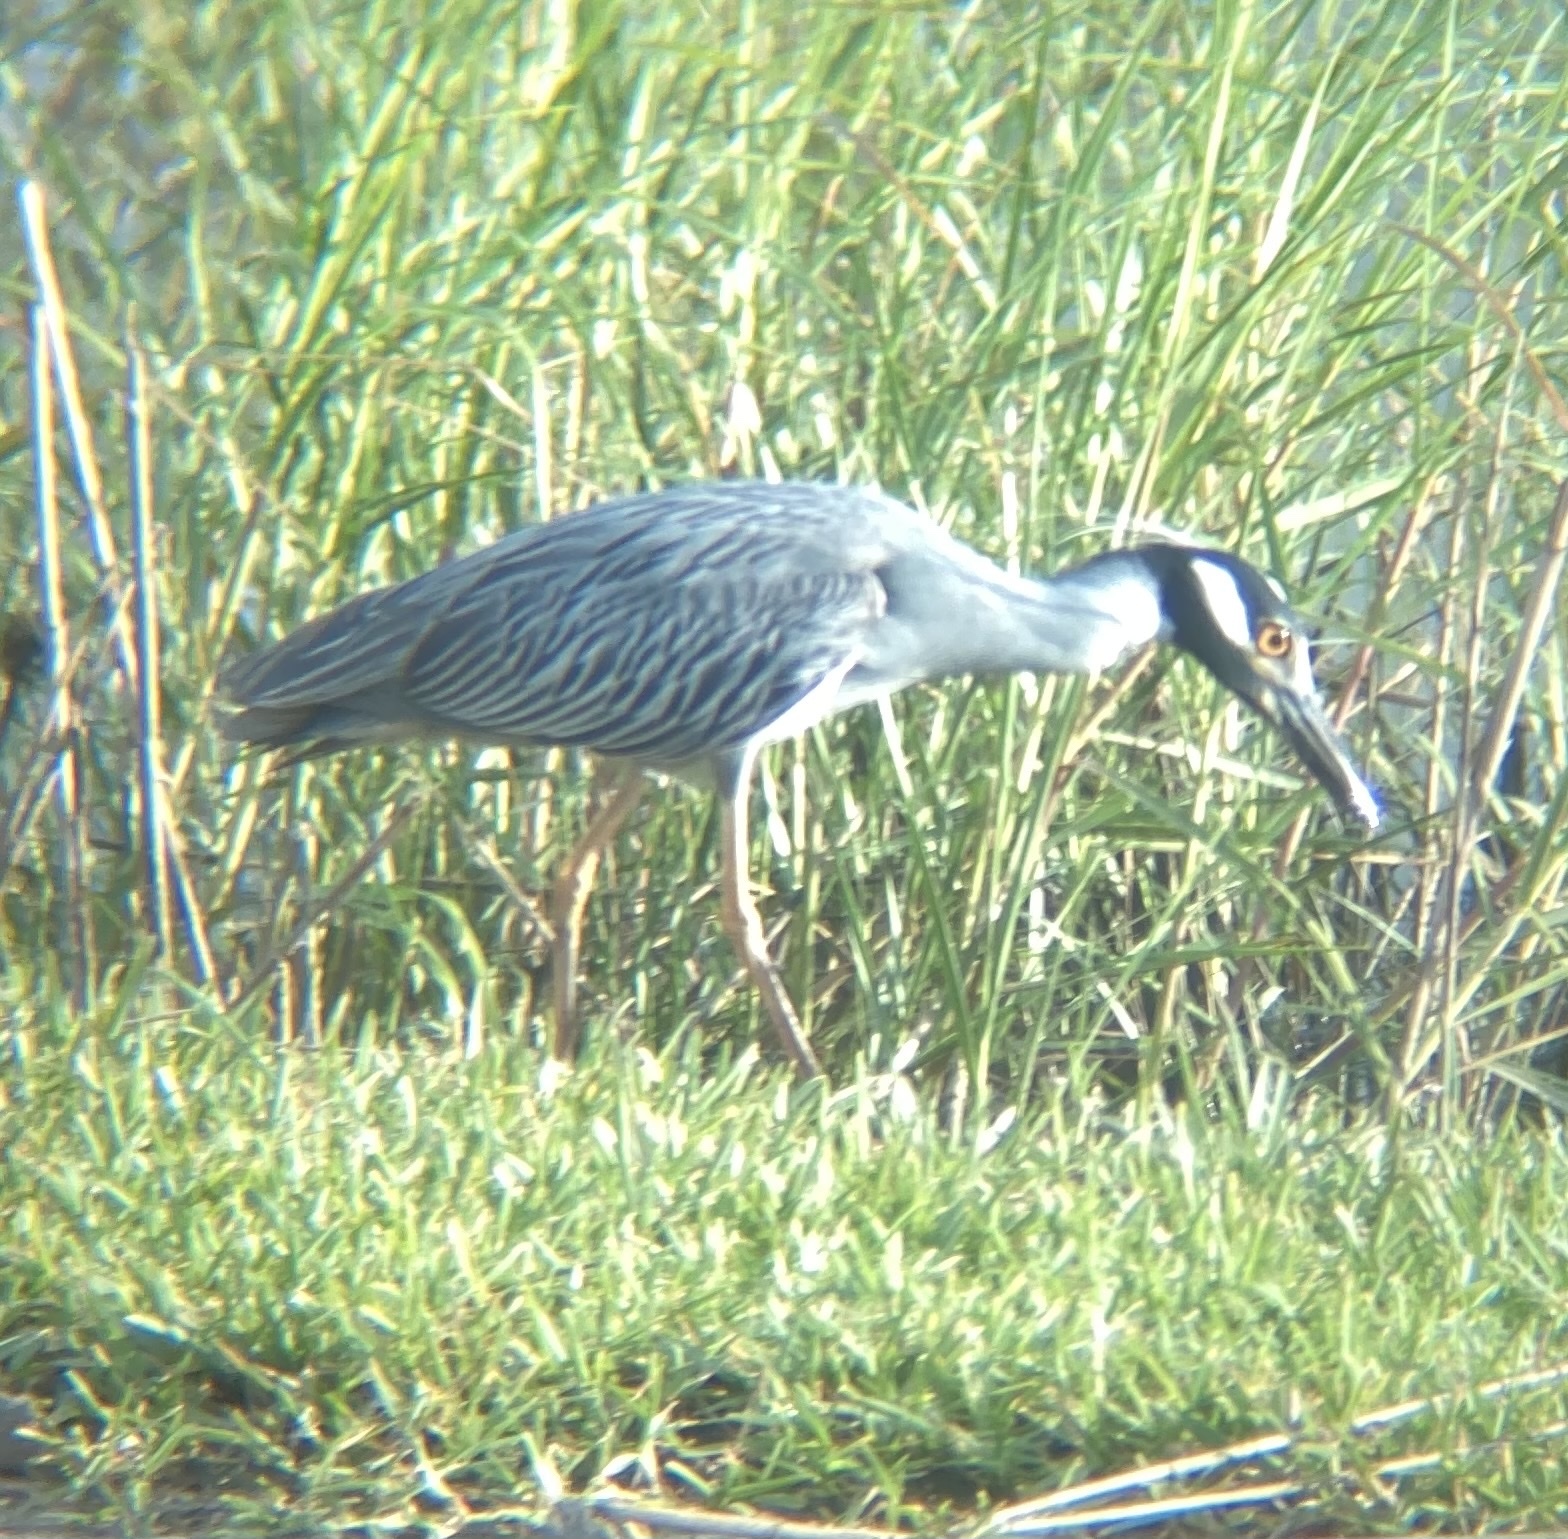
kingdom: Animalia
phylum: Chordata
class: Aves
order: Pelecaniformes
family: Ardeidae
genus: Nyctanassa
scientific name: Nyctanassa violacea
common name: Yellow-crowned night heron
